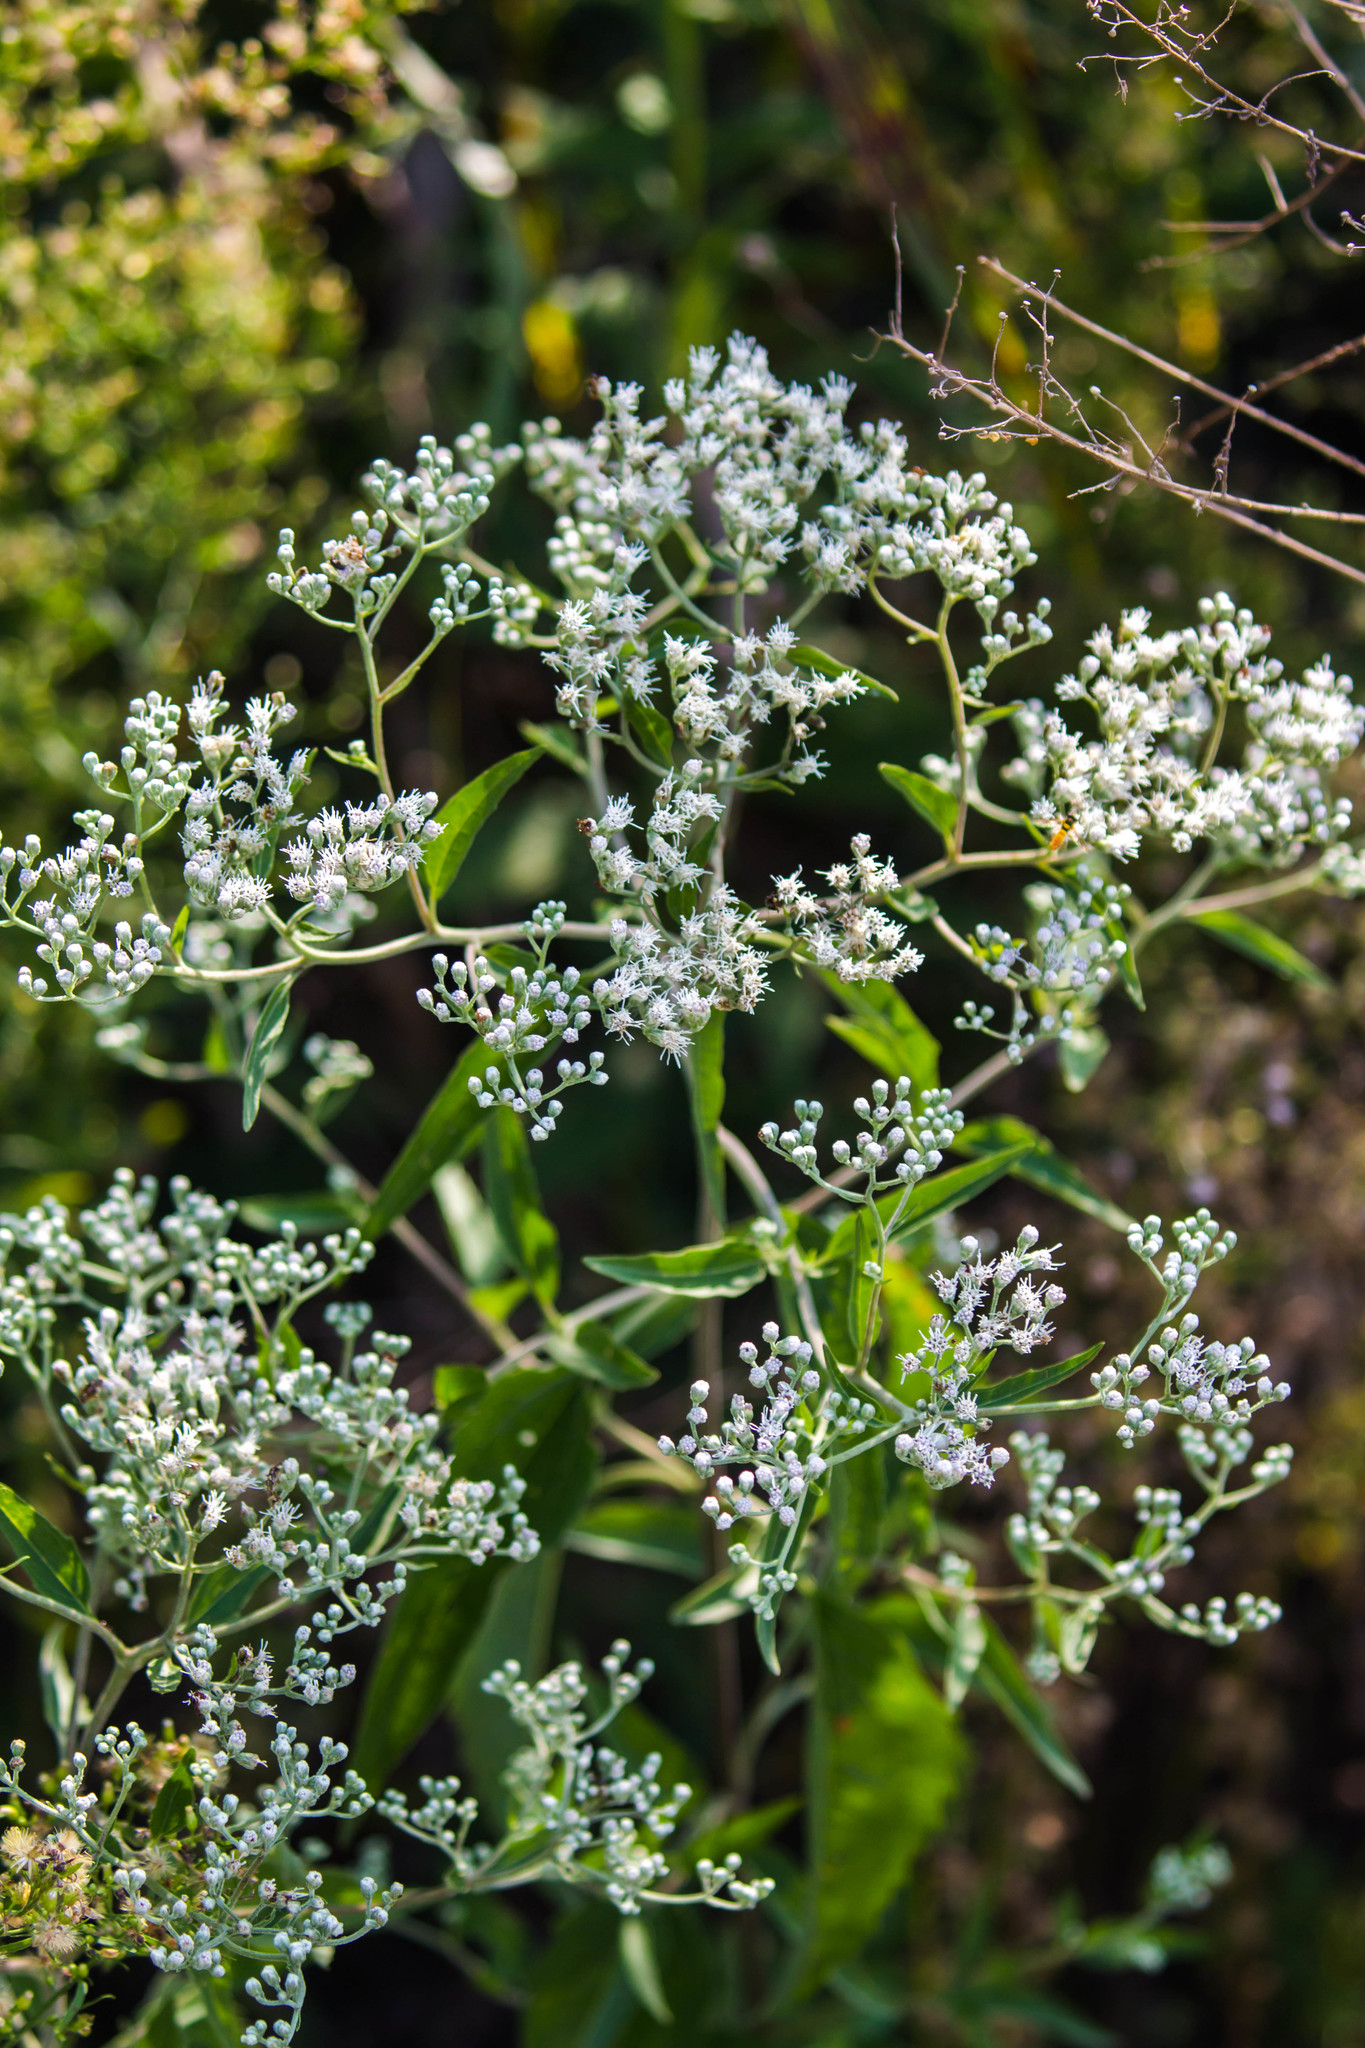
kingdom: Plantae
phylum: Tracheophyta
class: Magnoliopsida
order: Asterales
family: Asteraceae
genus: Eupatorium
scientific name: Eupatorium serotinum
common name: Late boneset
